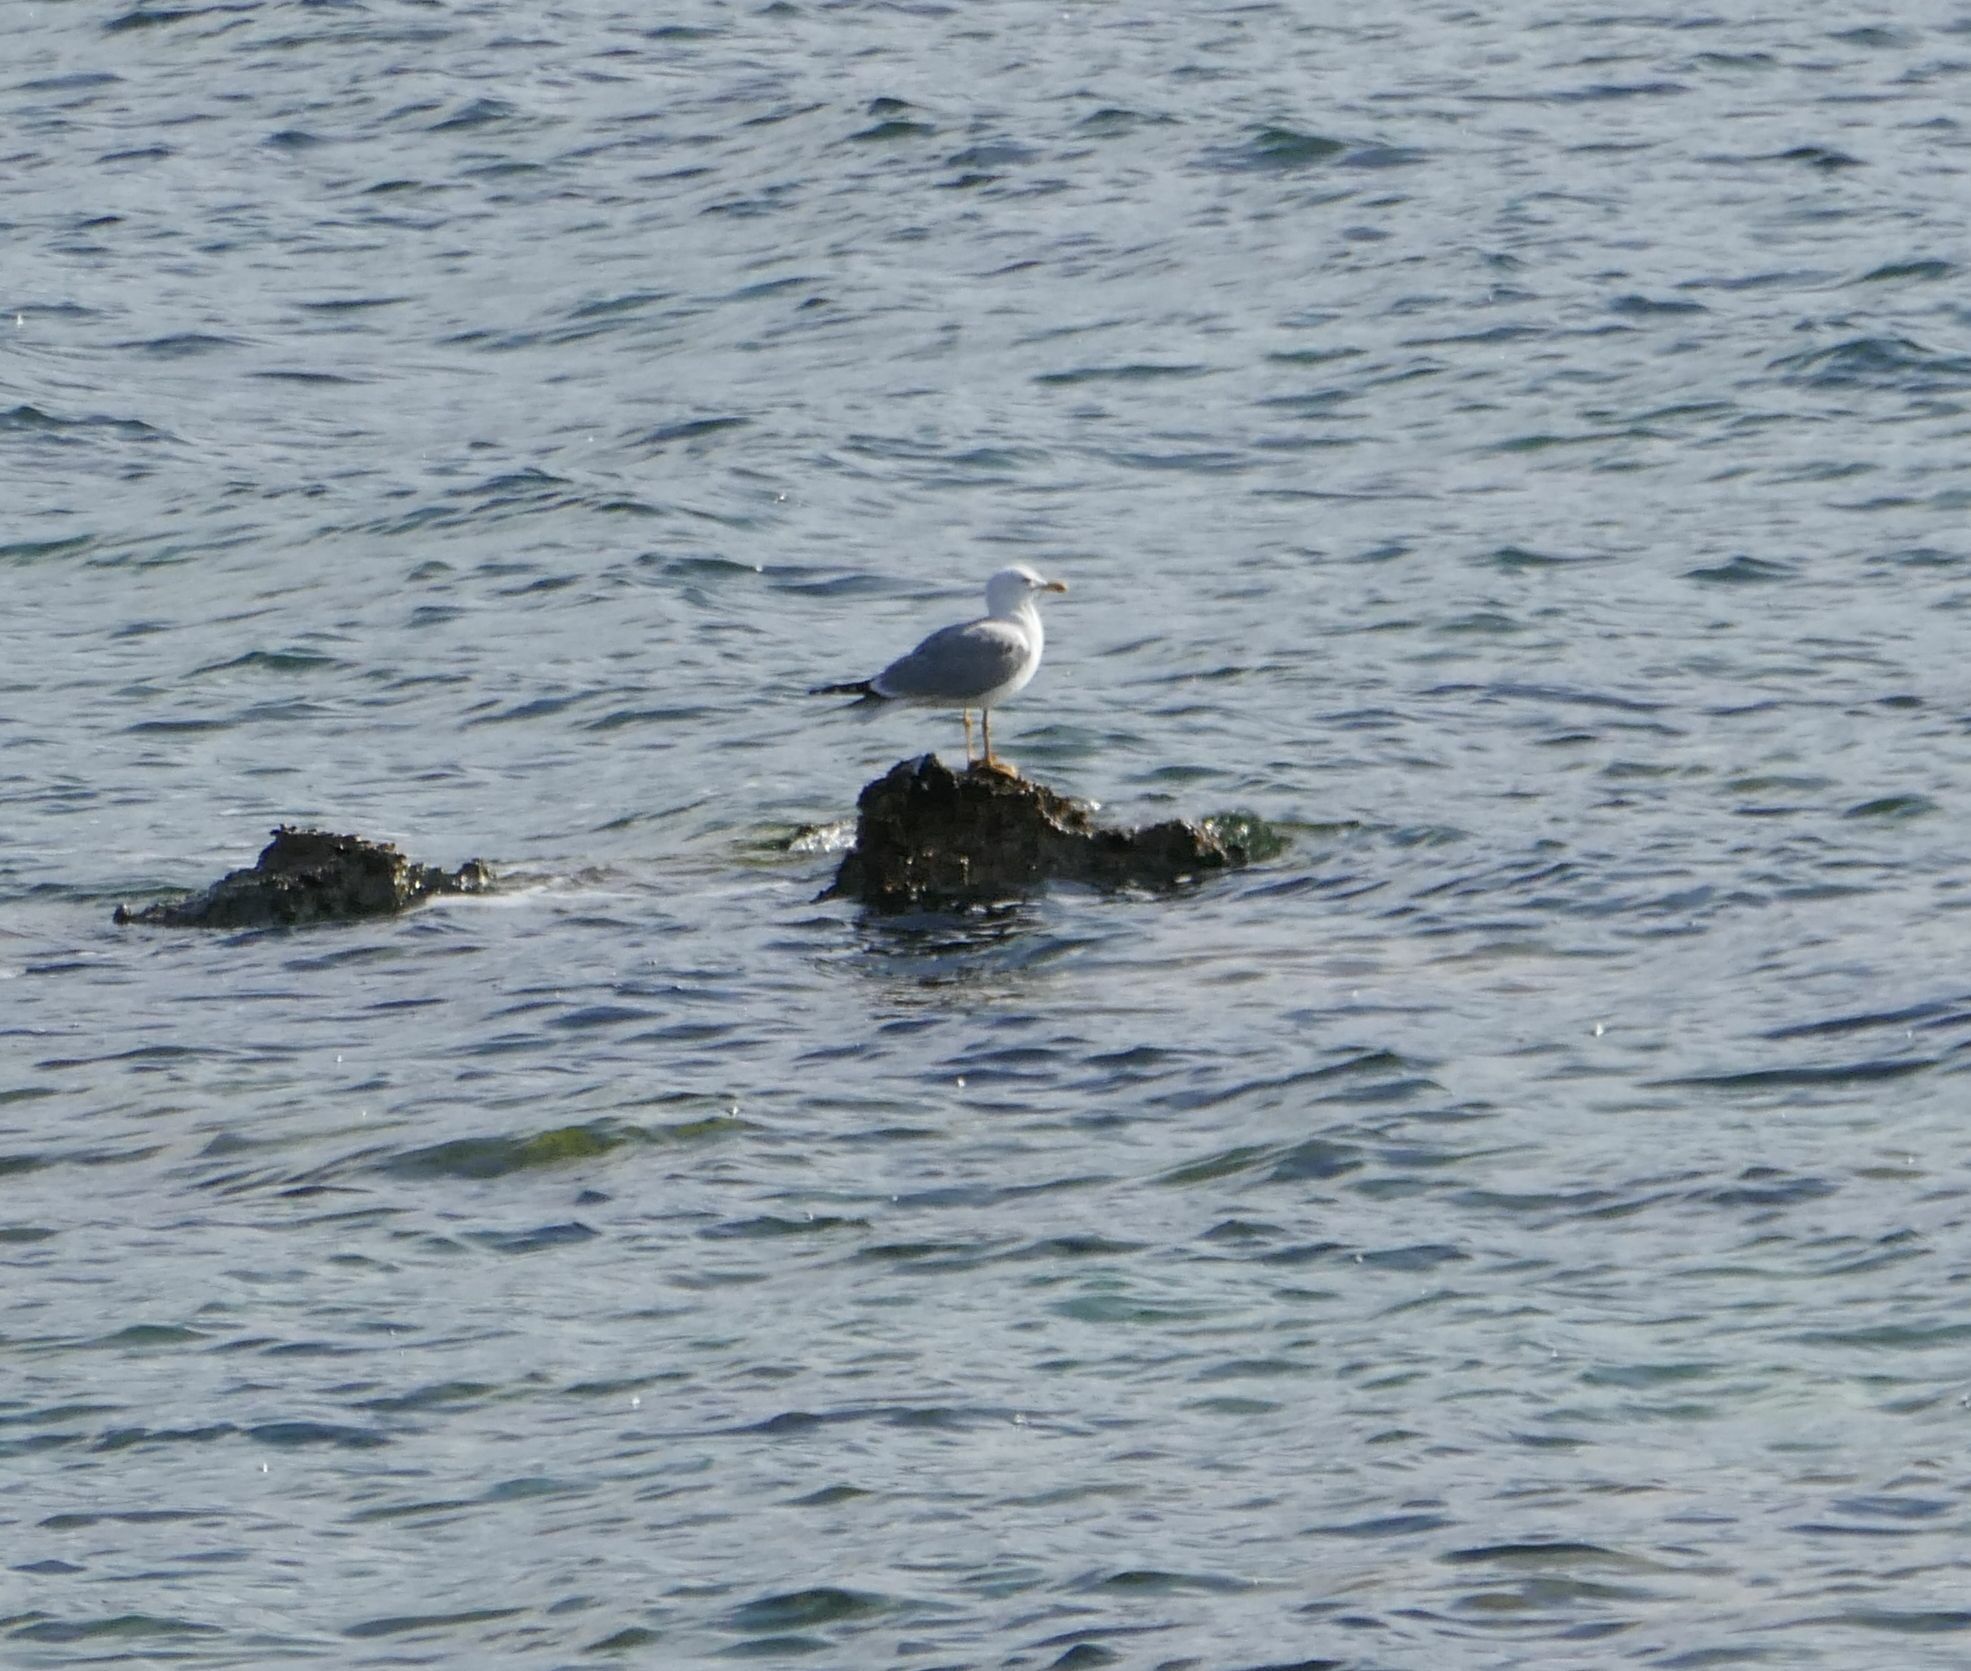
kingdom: Animalia
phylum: Chordata
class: Aves
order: Charadriiformes
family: Laridae
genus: Larus
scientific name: Larus michahellis
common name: Yellow-legged gull
